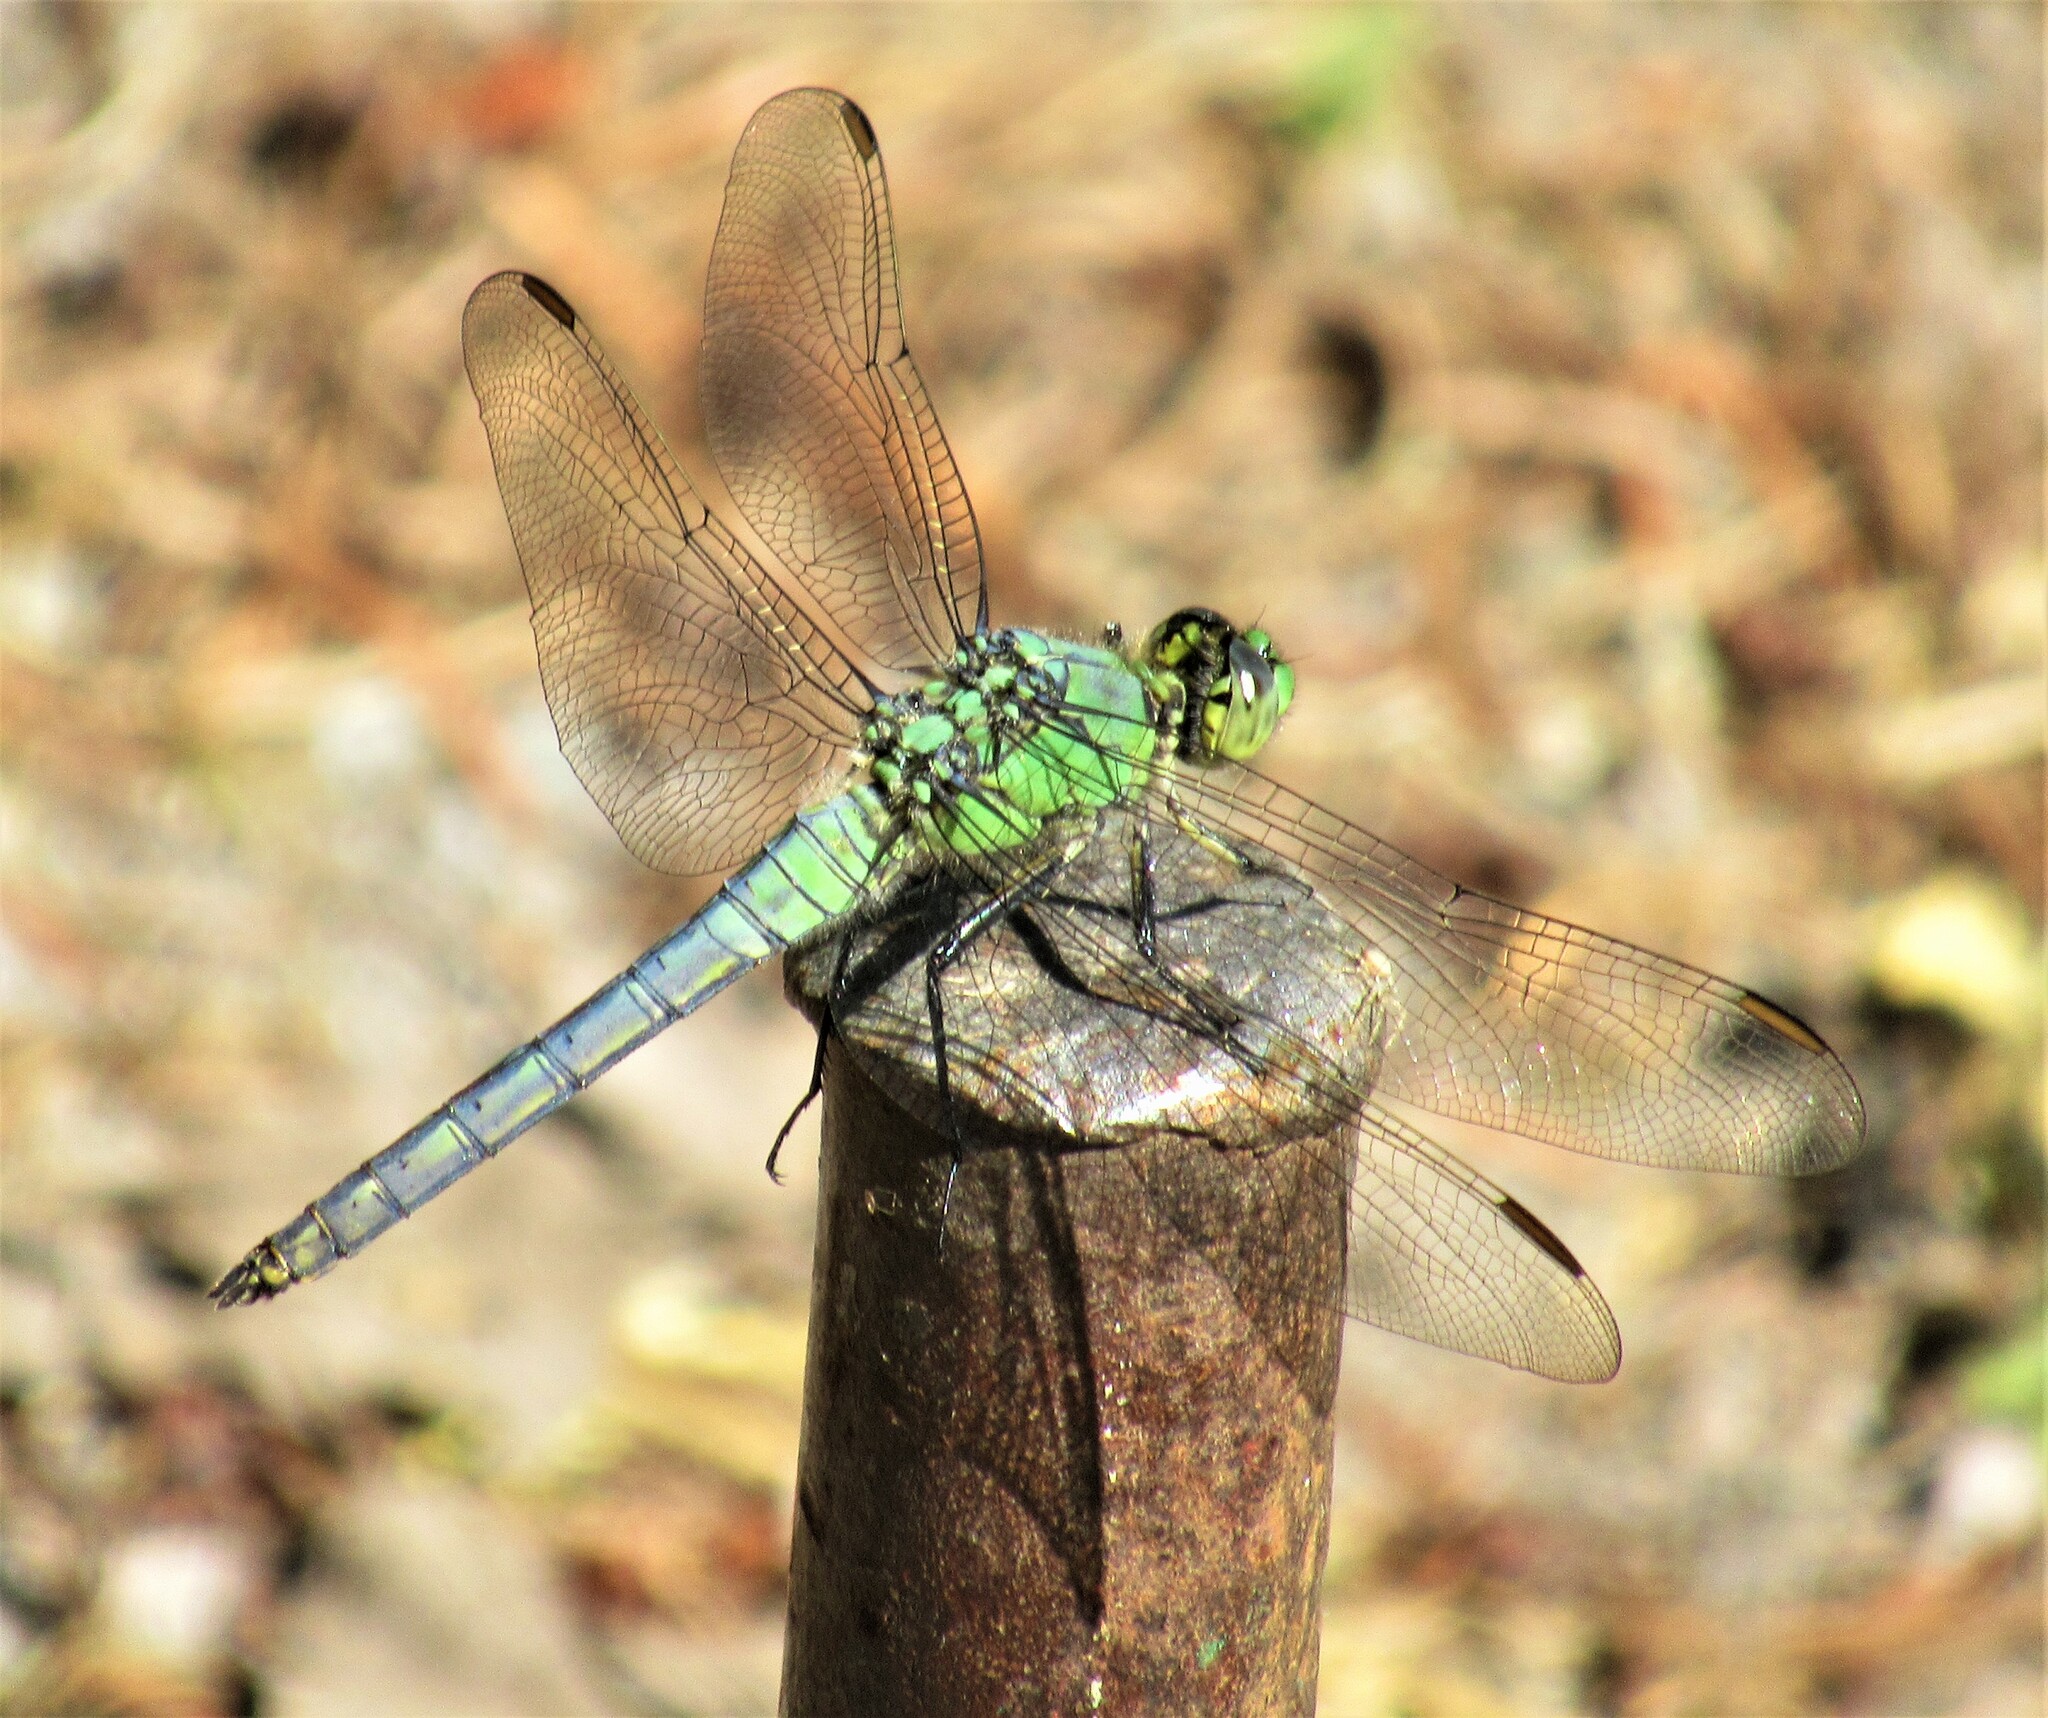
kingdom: Animalia
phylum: Arthropoda
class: Insecta
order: Odonata
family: Libellulidae
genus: Erythemis
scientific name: Erythemis collocata
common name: Western pondhawk
